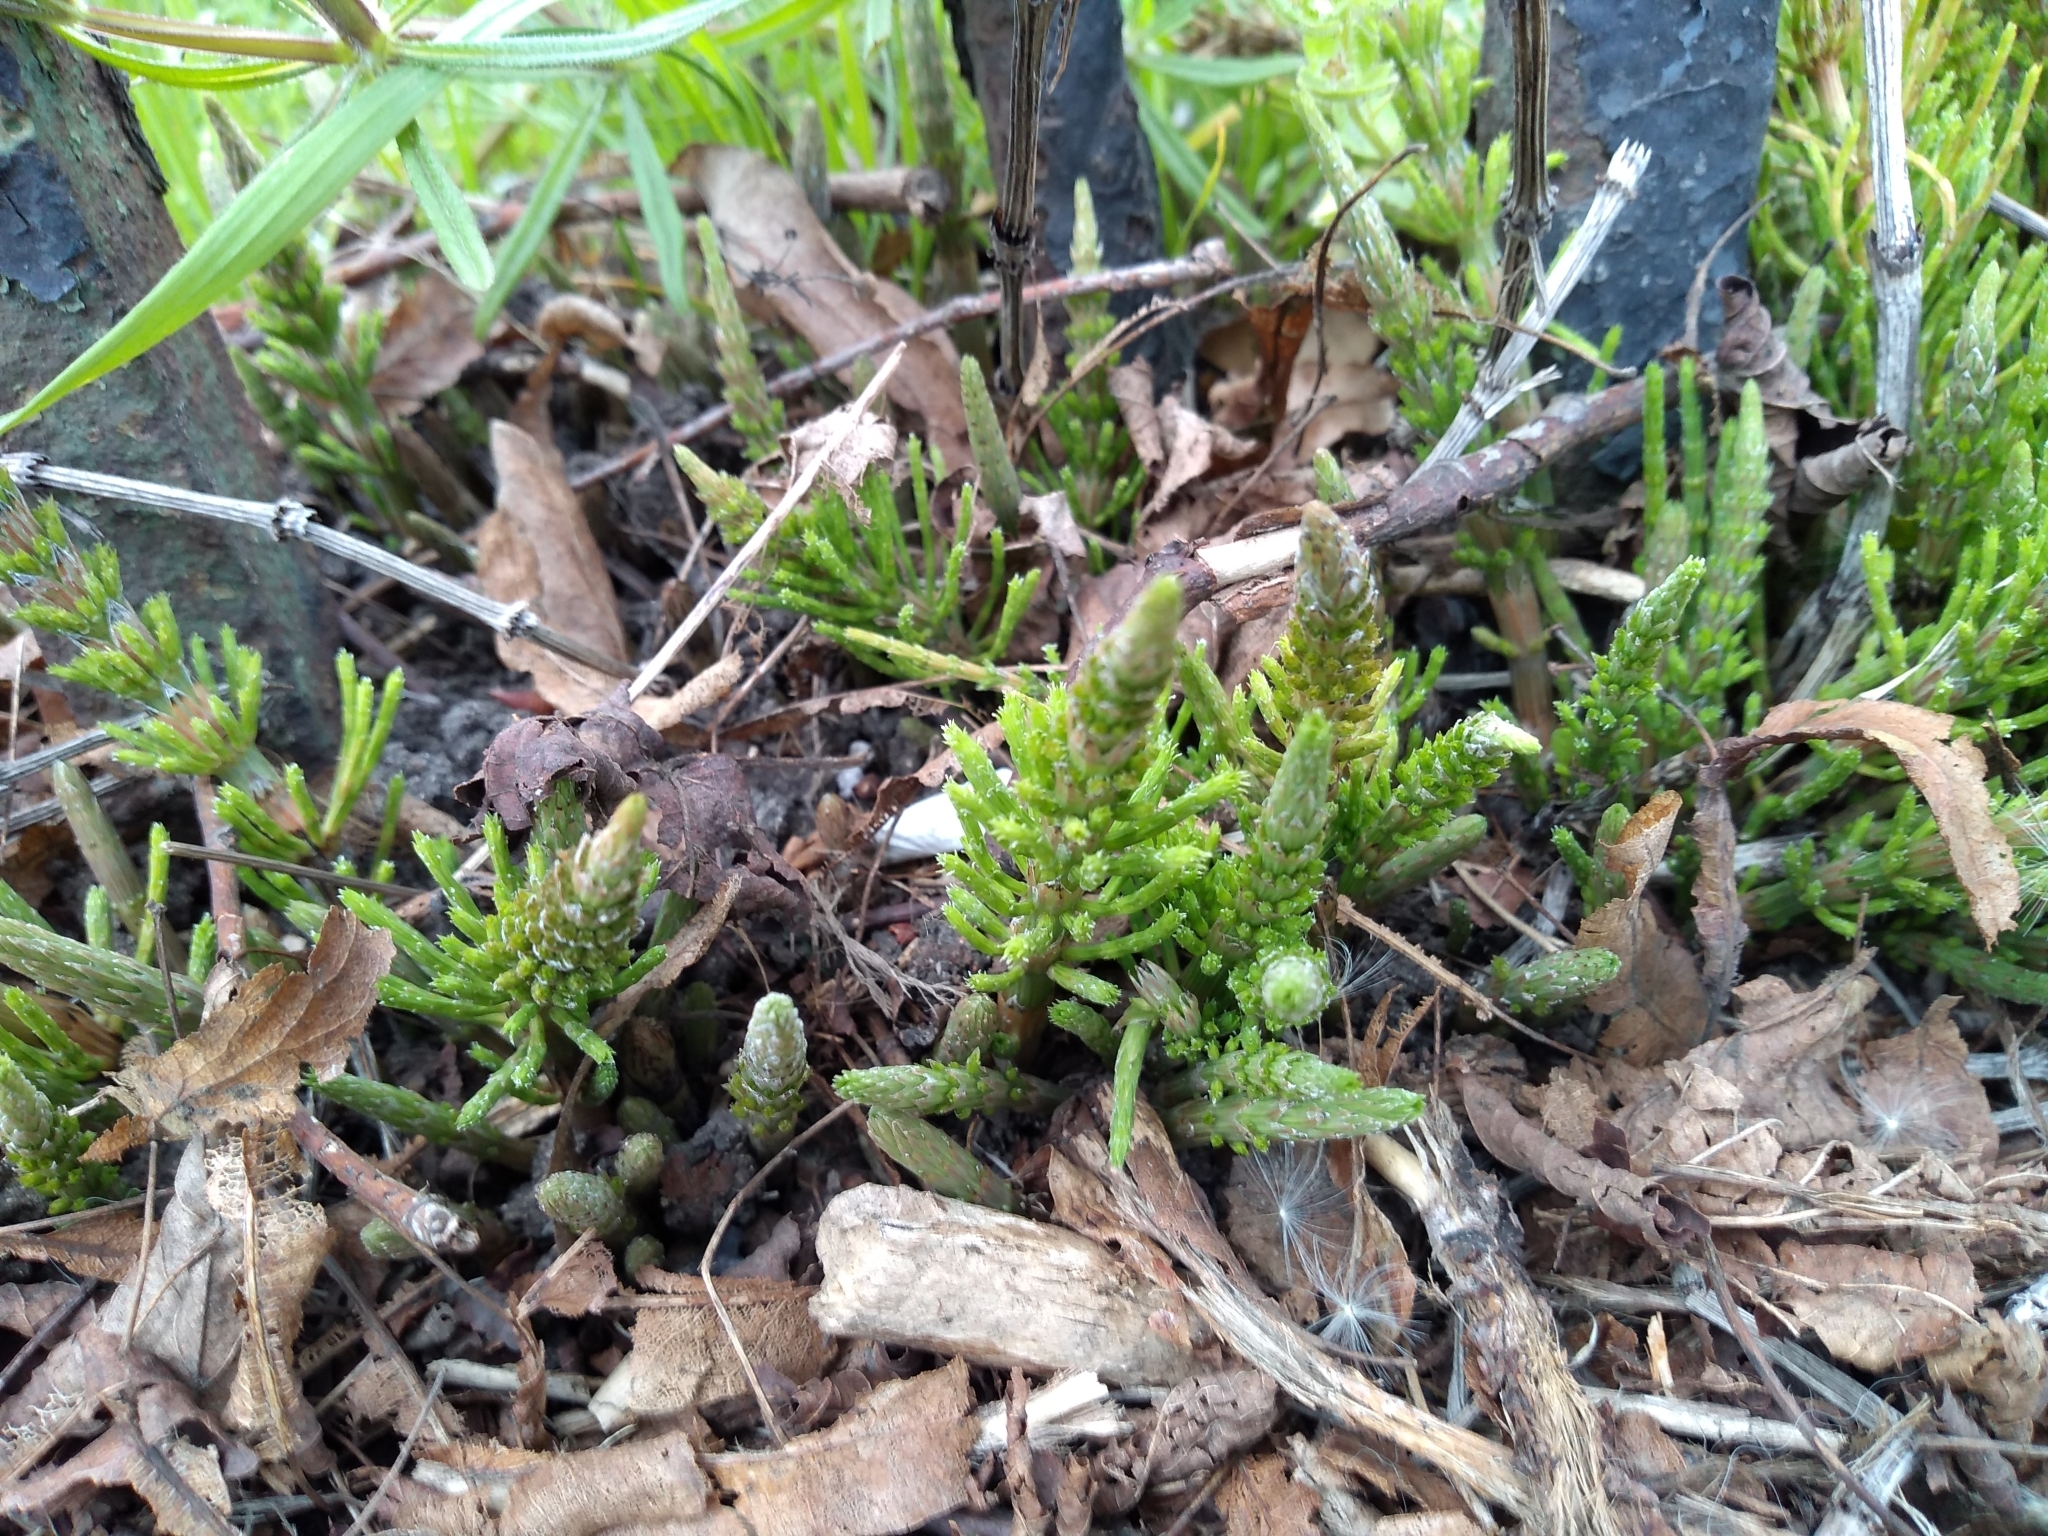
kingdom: Plantae
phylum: Tracheophyta
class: Polypodiopsida
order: Equisetales
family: Equisetaceae
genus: Equisetum
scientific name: Equisetum arvense
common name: Field horsetail
